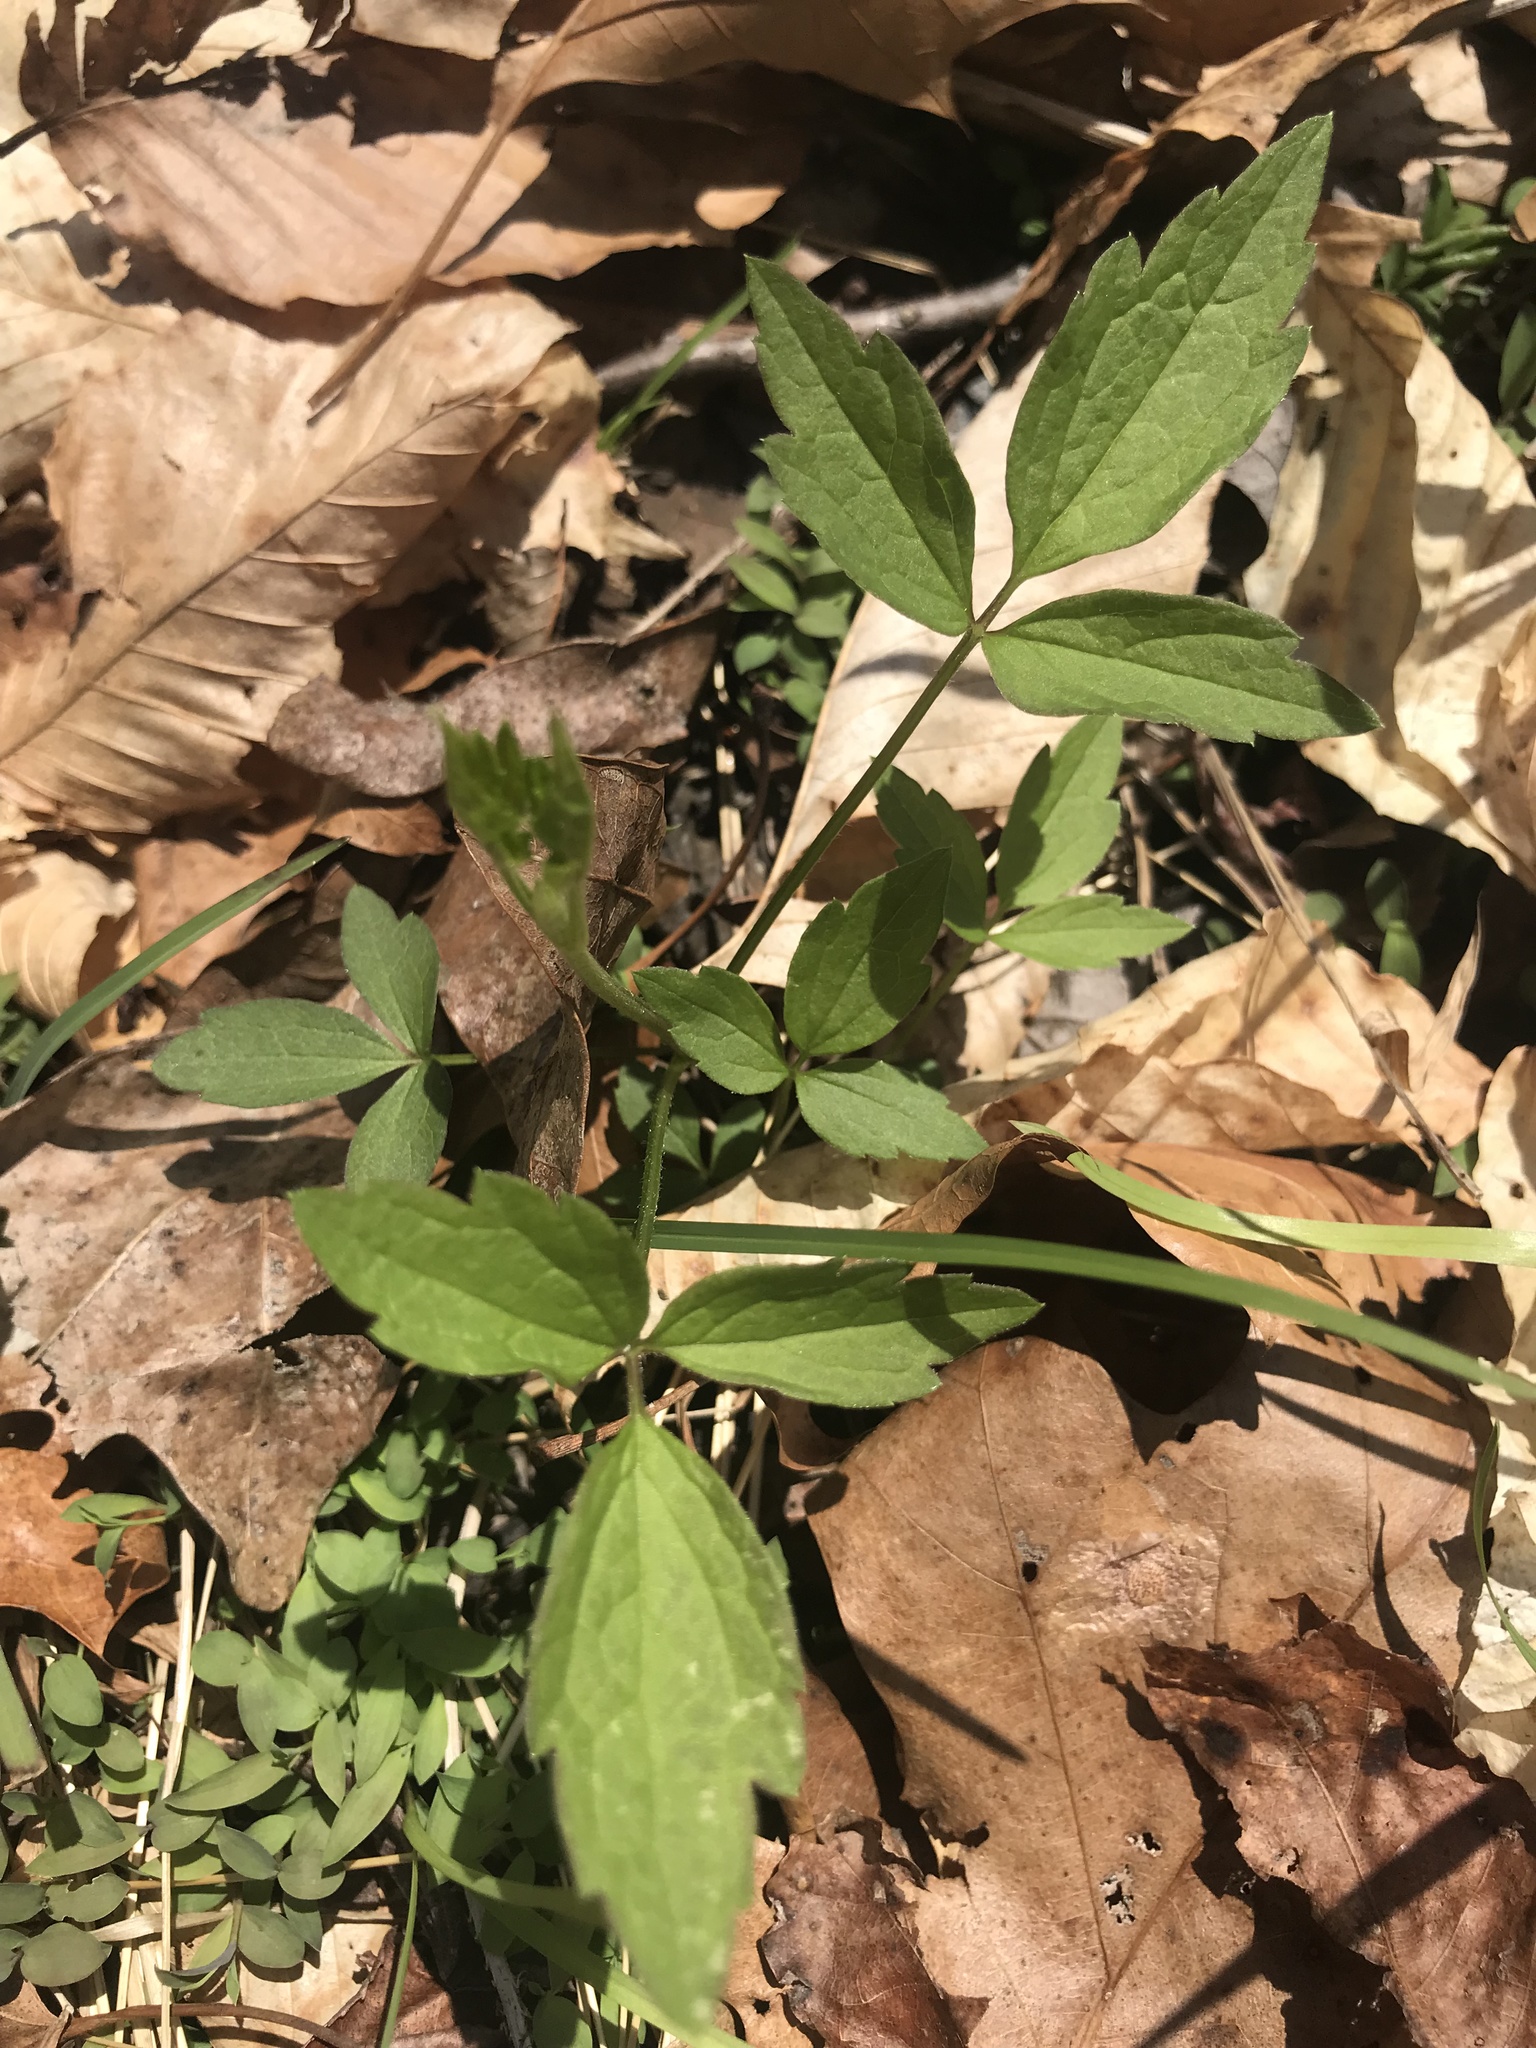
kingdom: Plantae
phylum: Tracheophyta
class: Magnoliopsida
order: Ranunculales
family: Ranunculaceae
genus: Clematis
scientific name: Clematis virginiana
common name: Virgin's-bower
